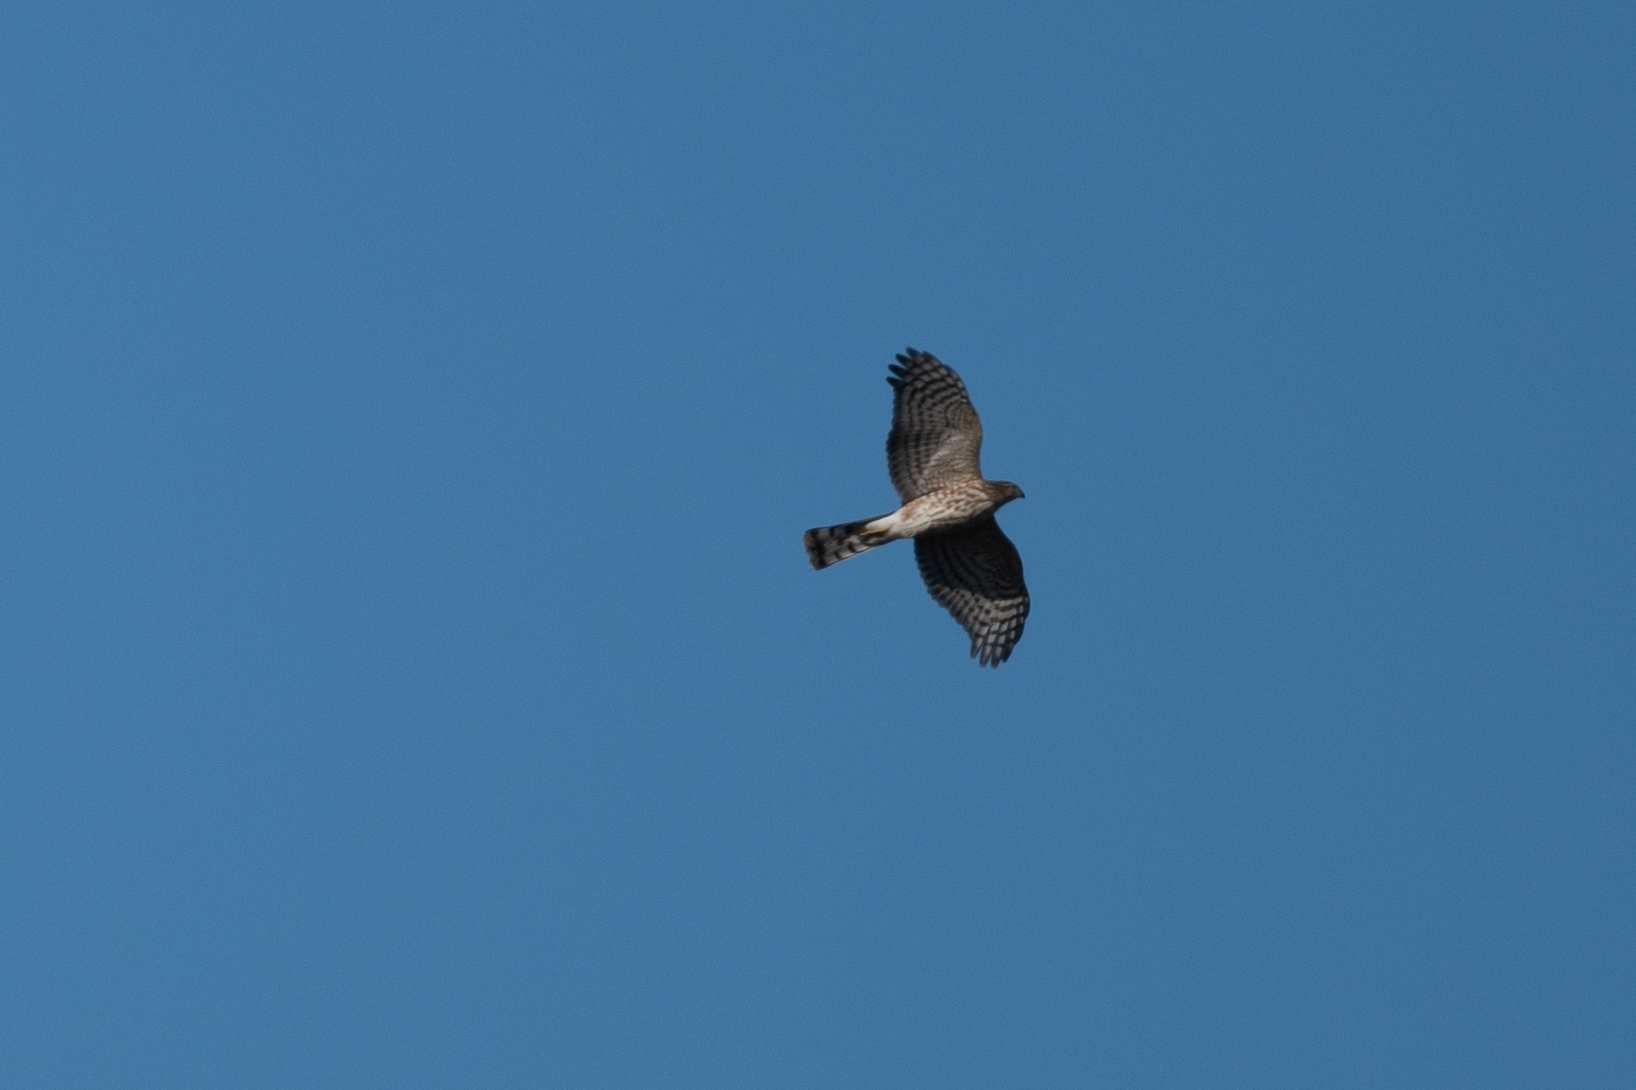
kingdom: Animalia
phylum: Chordata
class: Aves
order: Accipitriformes
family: Accipitridae
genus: Accipiter
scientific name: Accipiter striatus
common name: Sharp-shinned hawk
